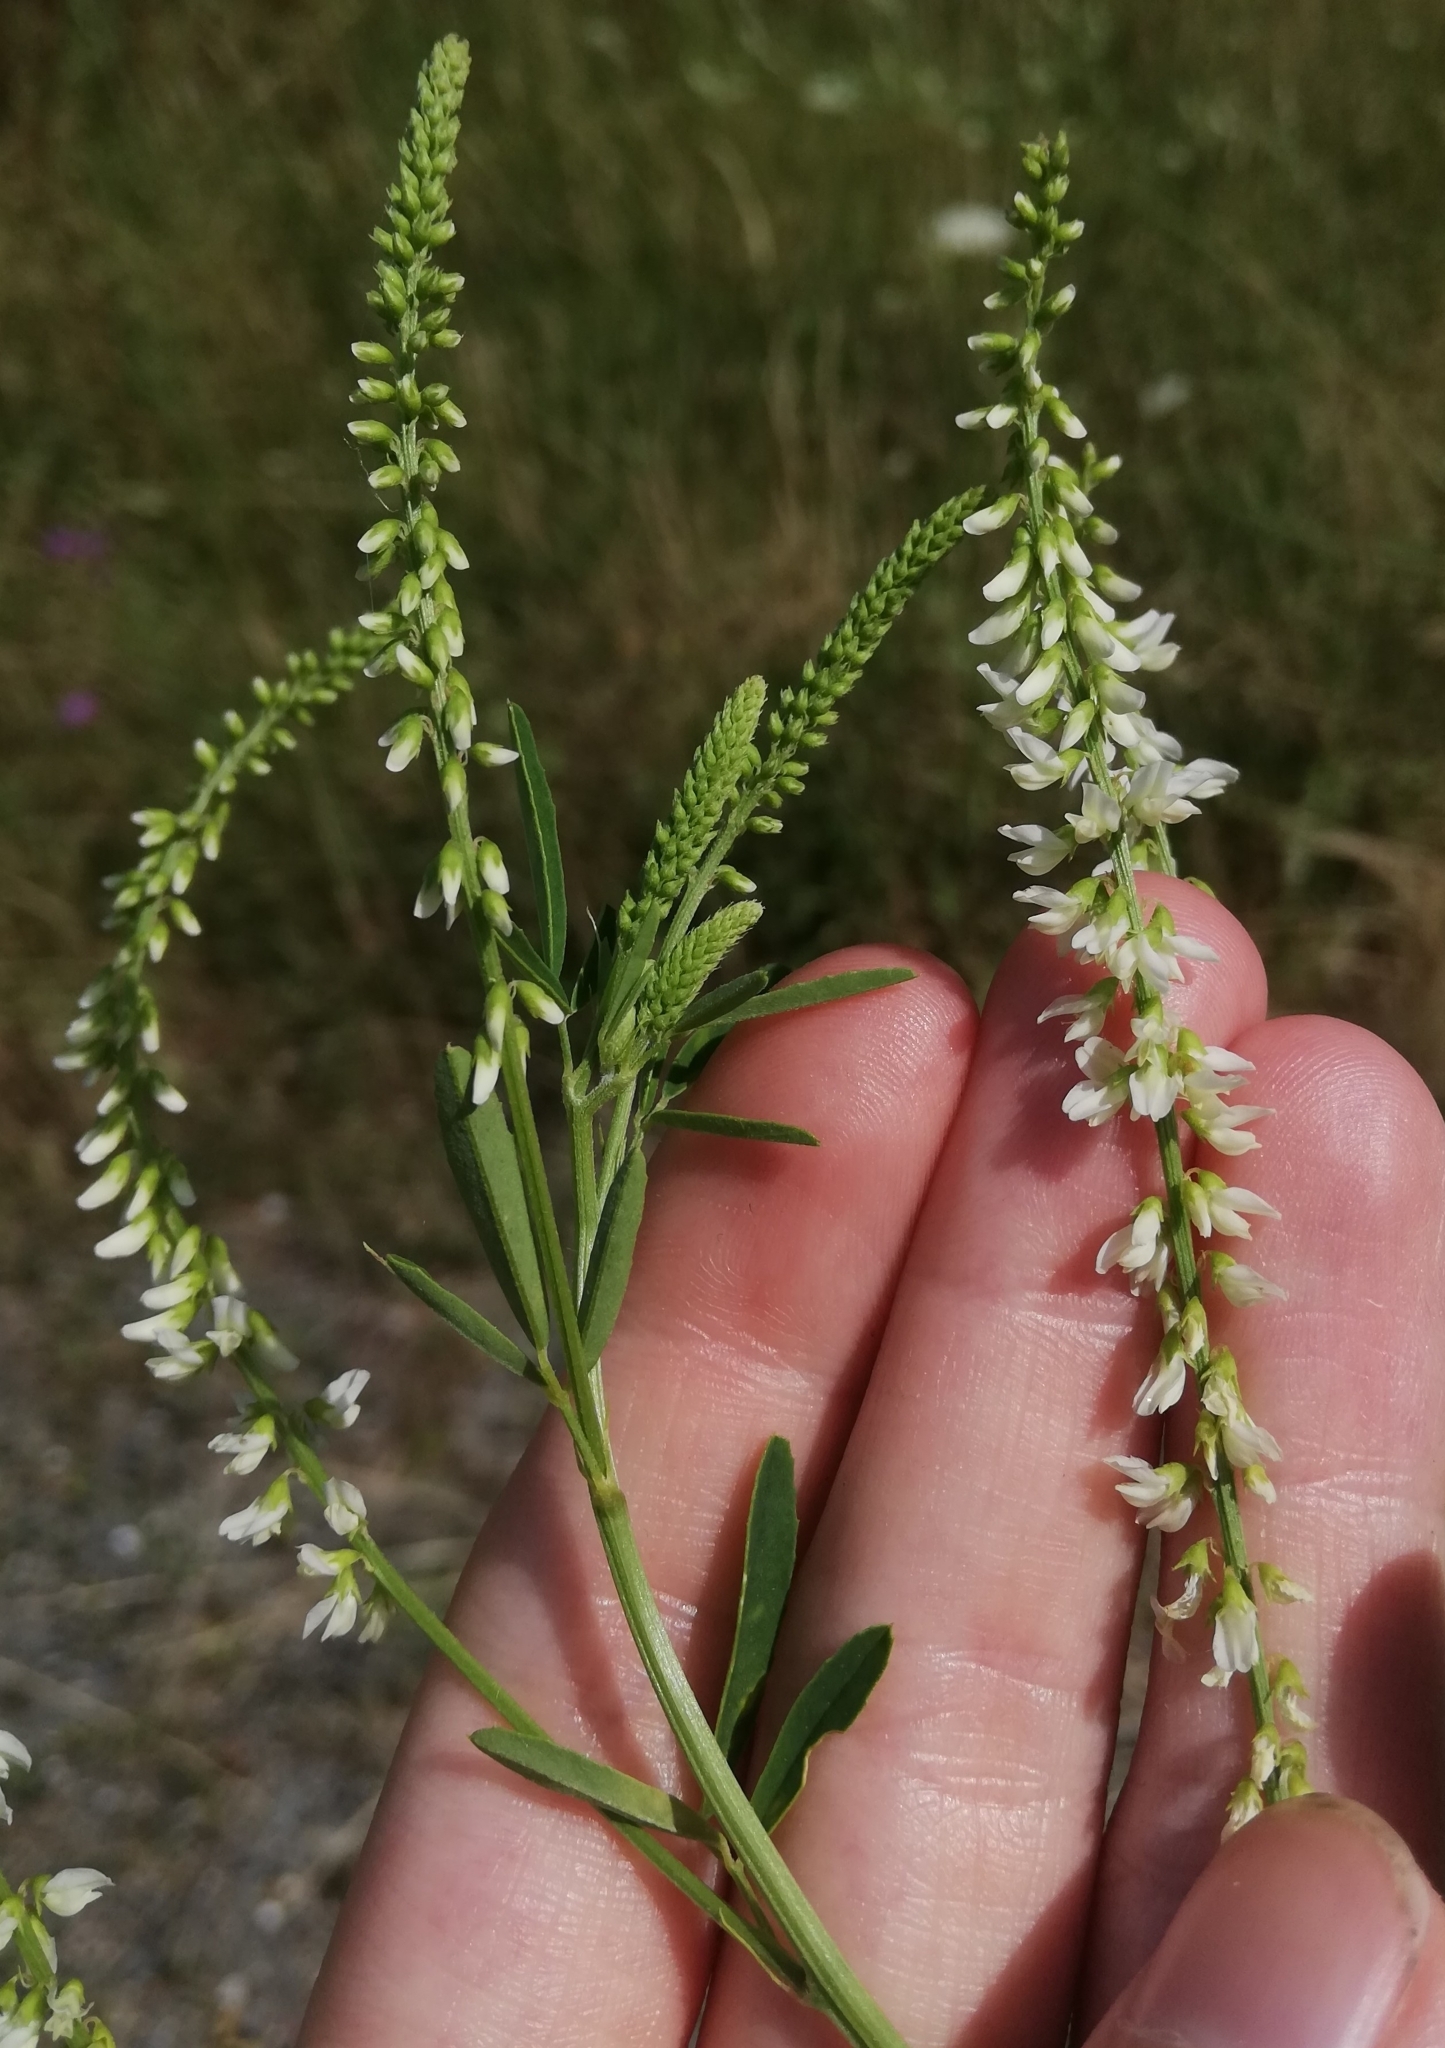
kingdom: Plantae
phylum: Tracheophyta
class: Magnoliopsida
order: Fabales
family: Fabaceae
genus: Melilotus
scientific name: Melilotus albus
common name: White melilot
